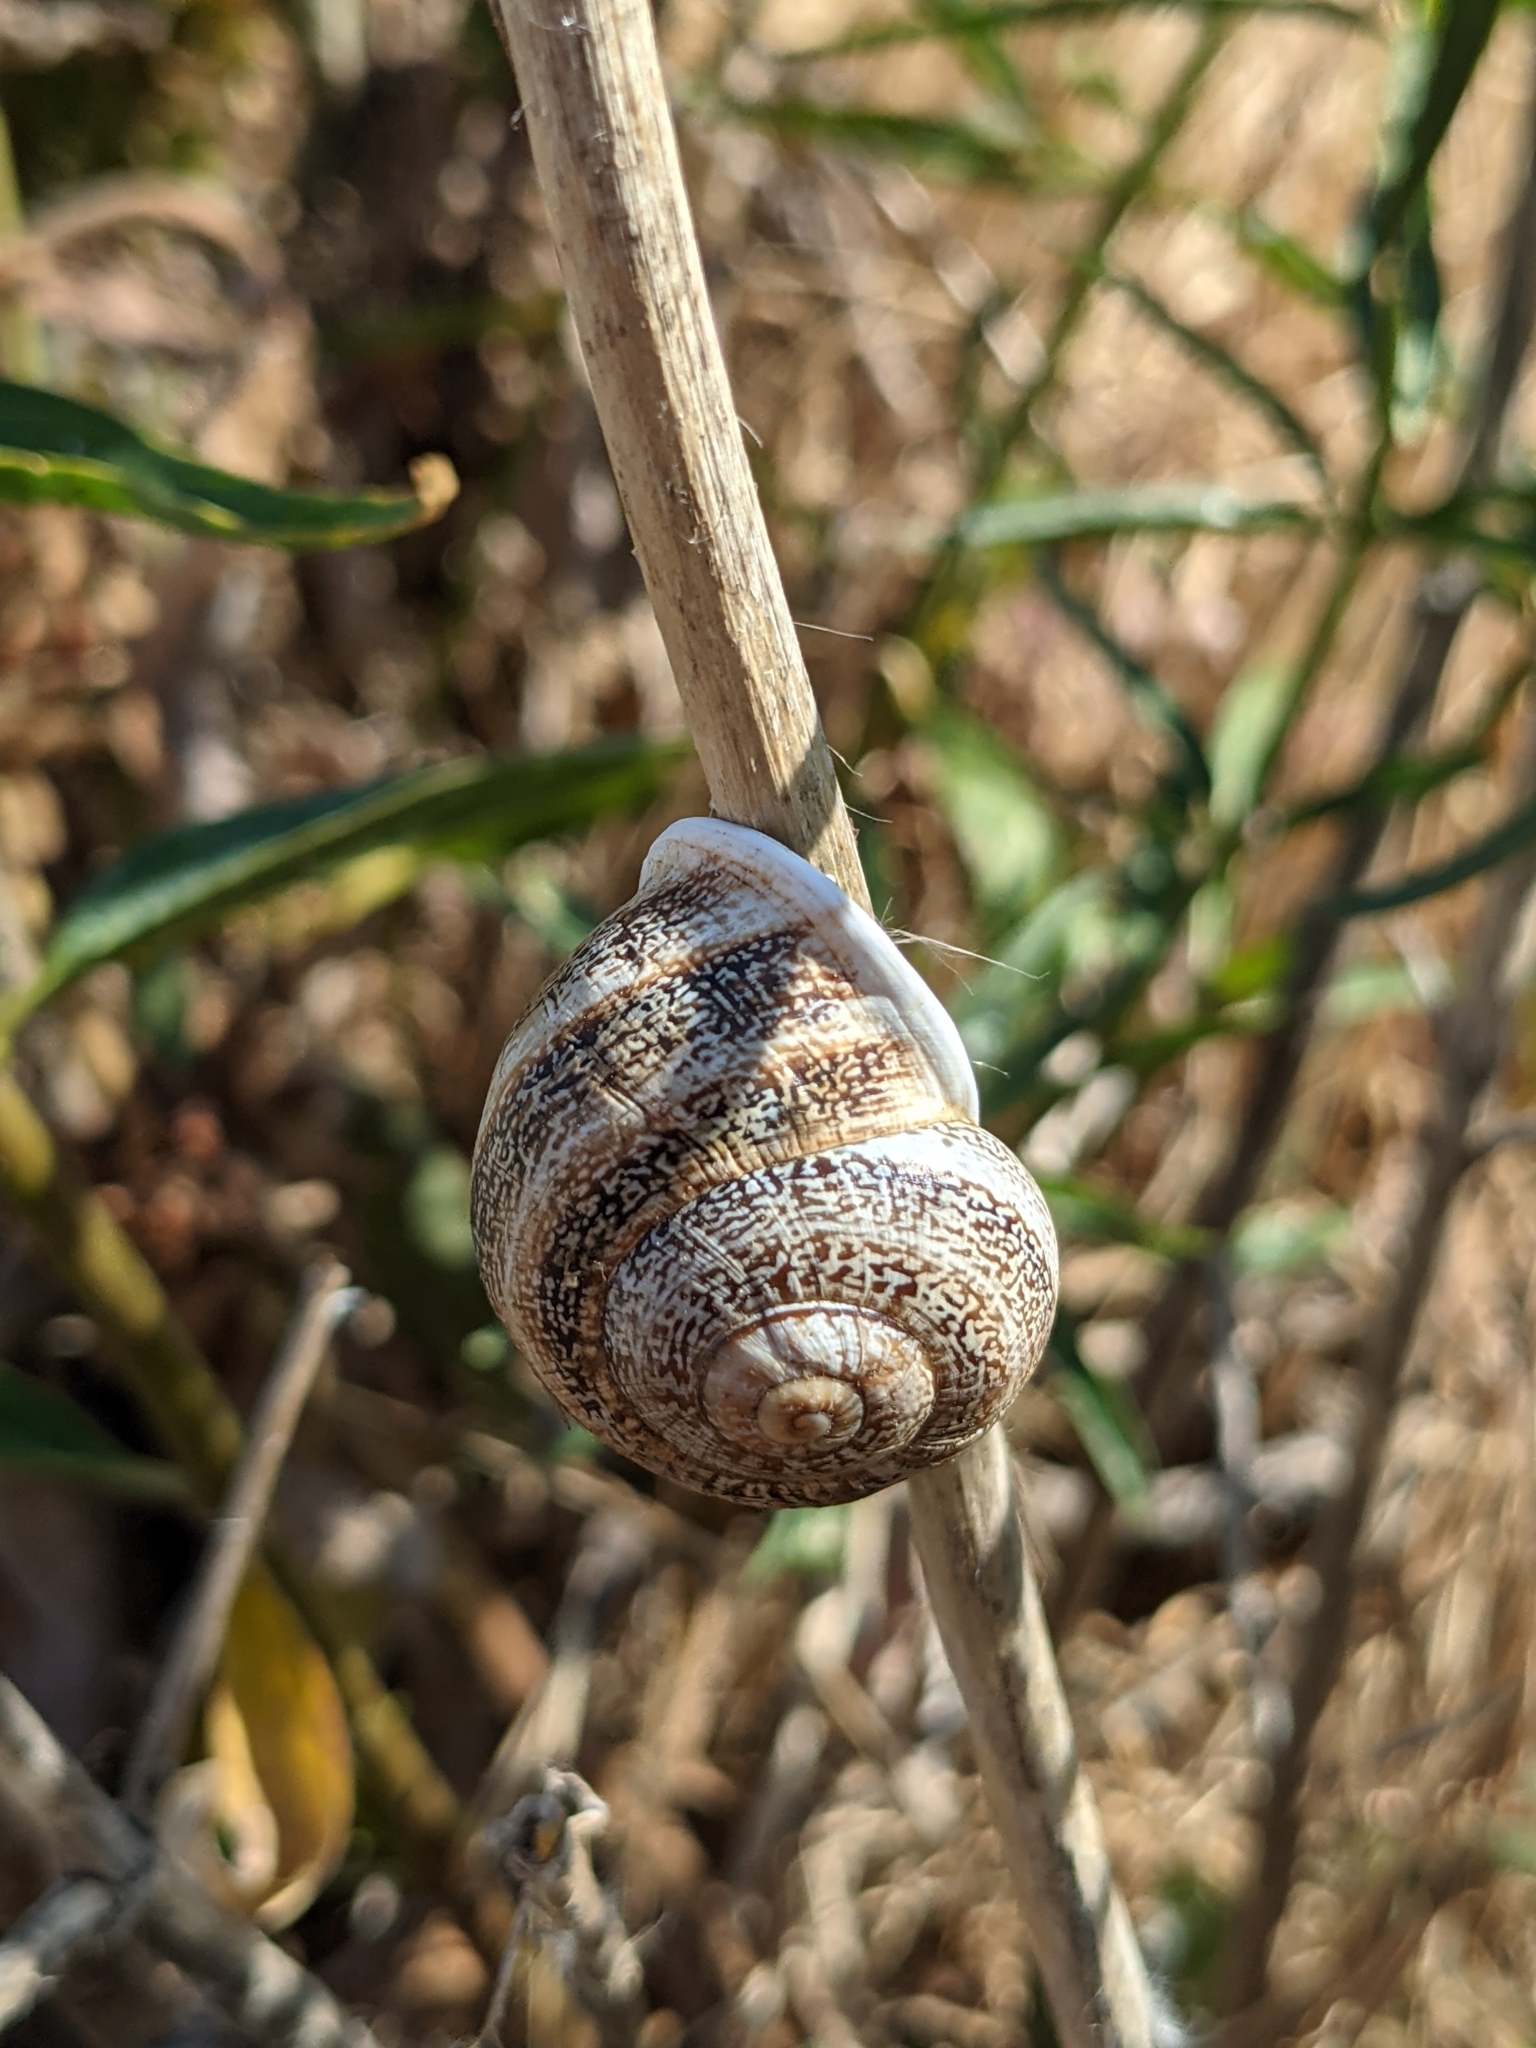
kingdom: Animalia
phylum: Mollusca
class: Gastropoda
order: Stylommatophora
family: Helicidae
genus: Otala
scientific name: Otala lactea
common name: Milk snail
